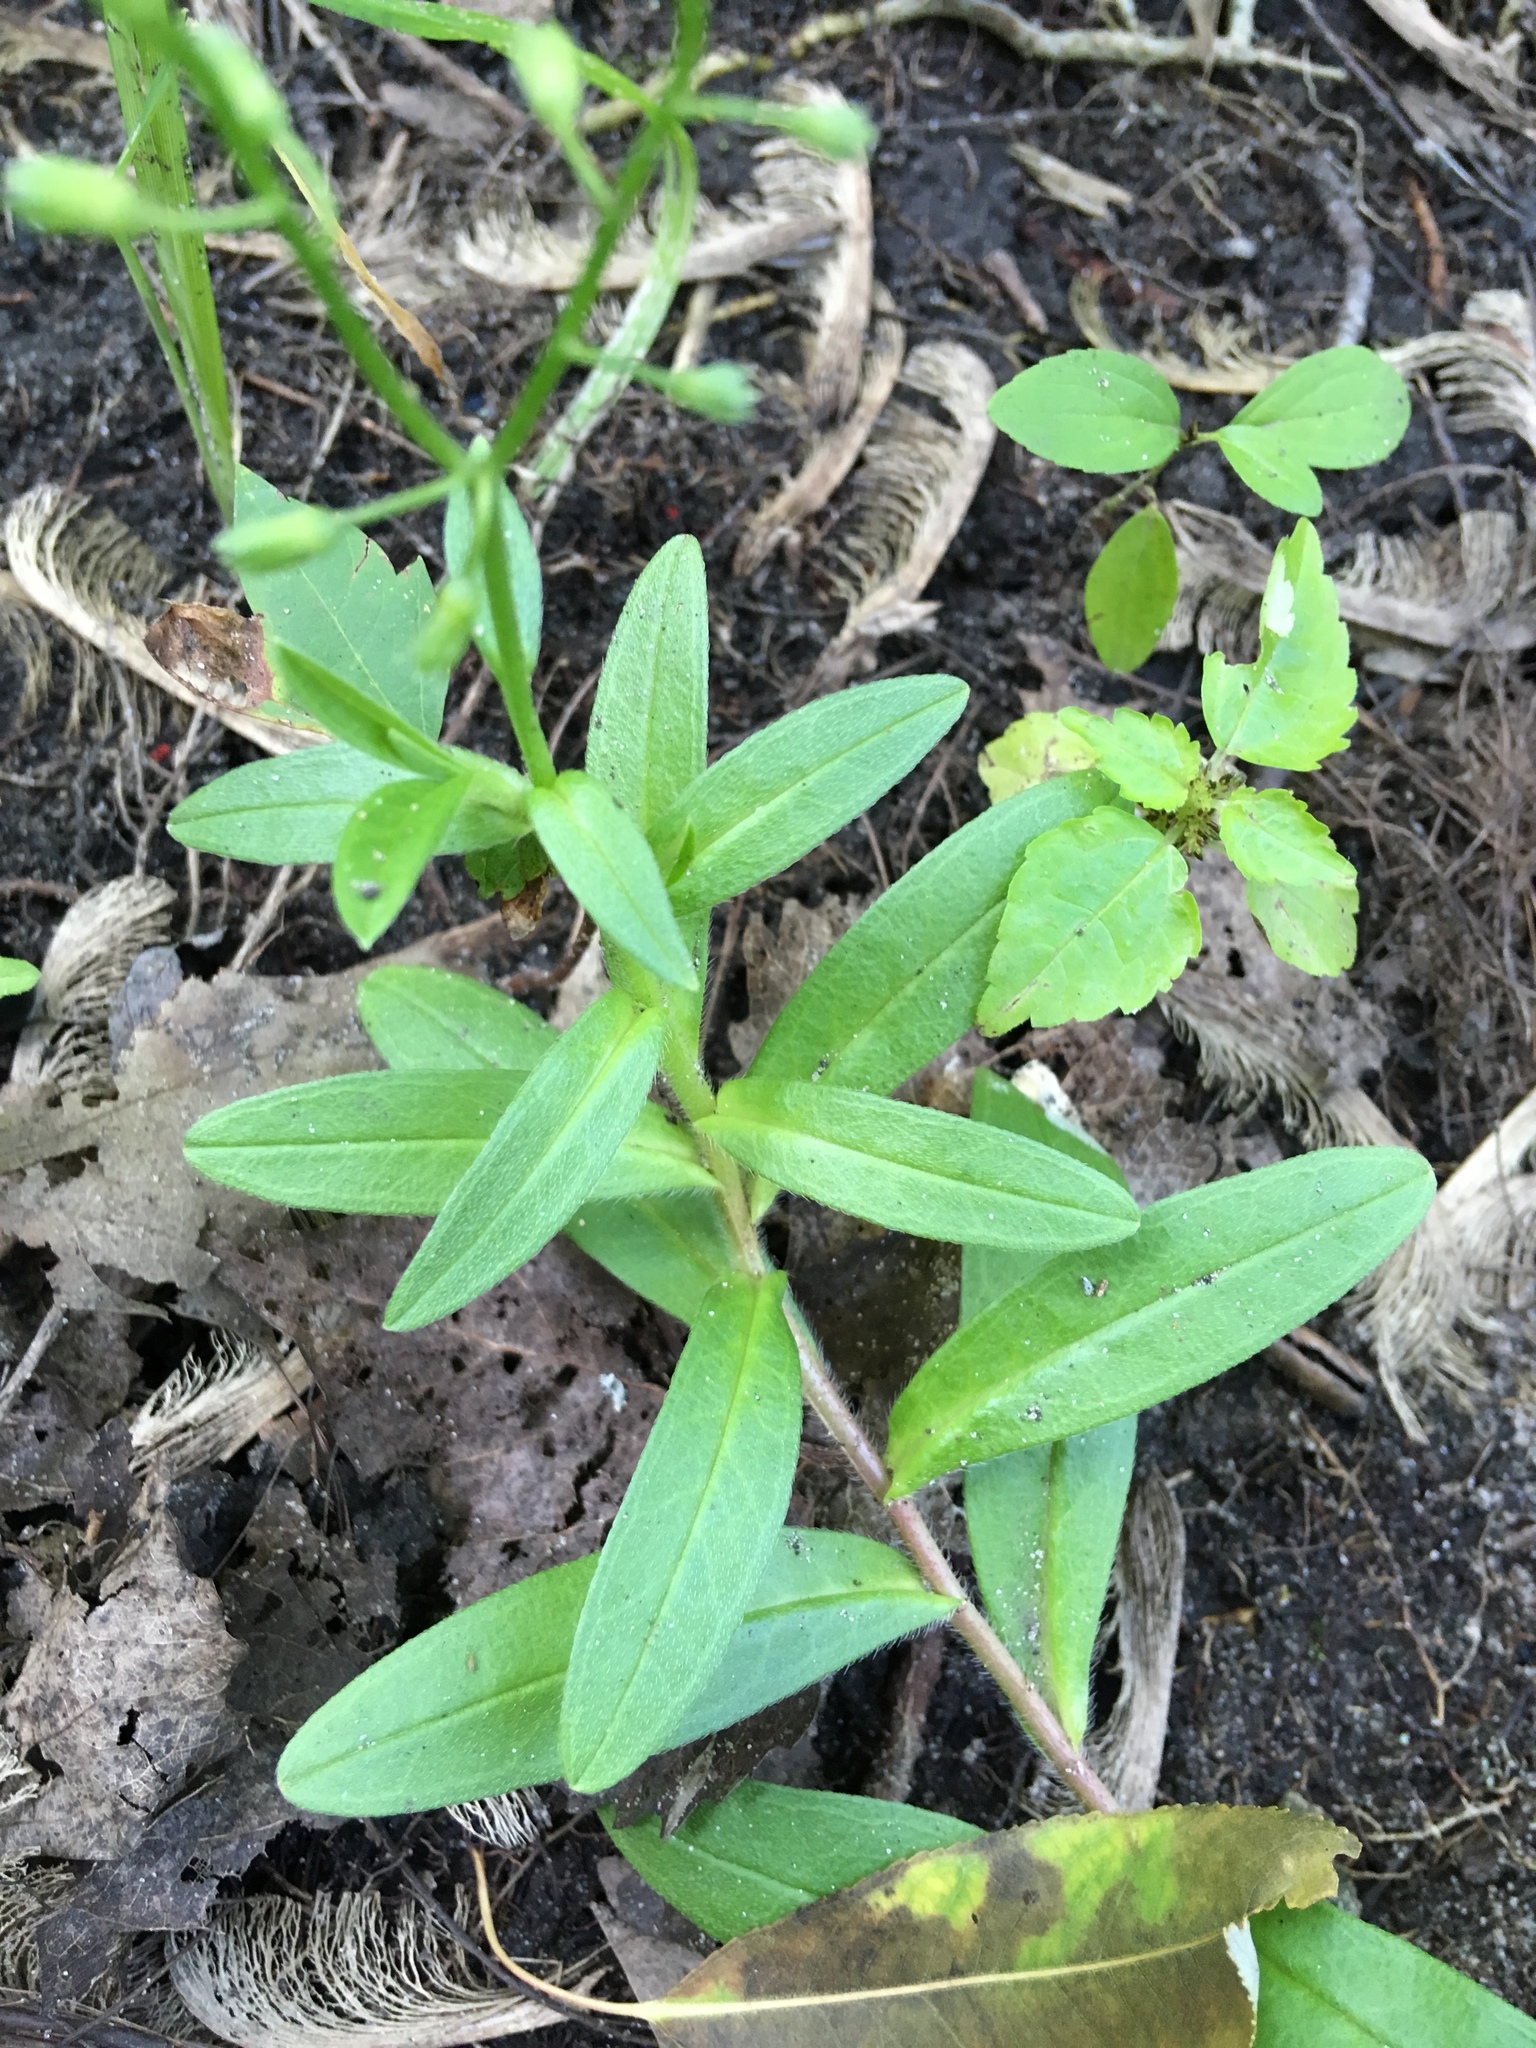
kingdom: Plantae
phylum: Tracheophyta
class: Magnoliopsida
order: Boraginales
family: Boraginaceae
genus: Myosotis
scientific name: Myosotis scorpioides
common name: Water forget-me-not
